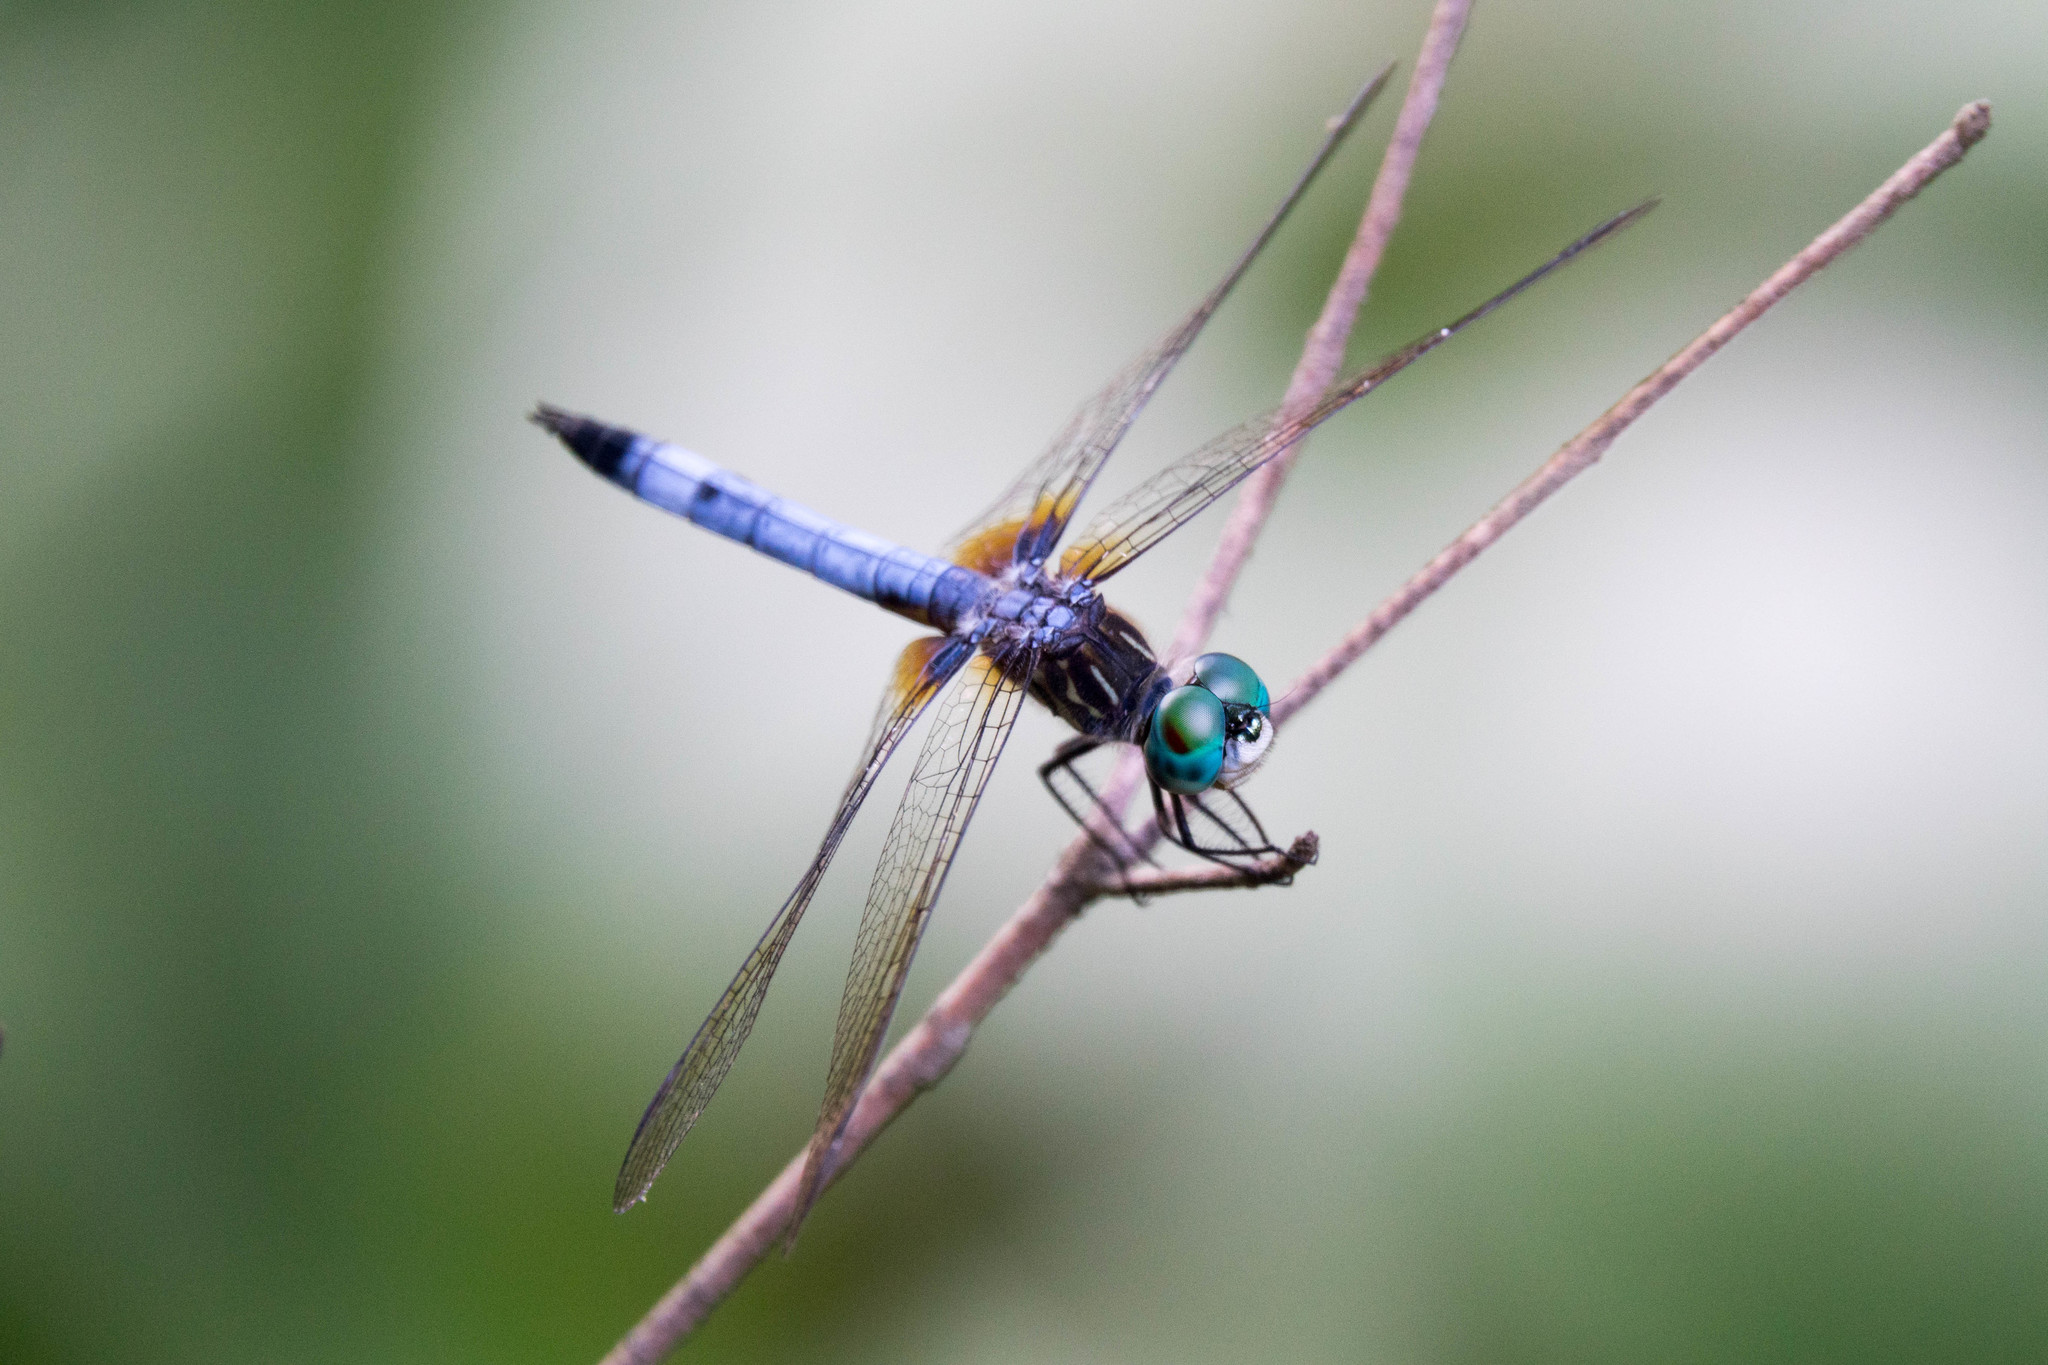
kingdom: Animalia
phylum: Arthropoda
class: Insecta
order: Odonata
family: Libellulidae
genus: Pachydiplax
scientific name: Pachydiplax longipennis
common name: Blue dasher
